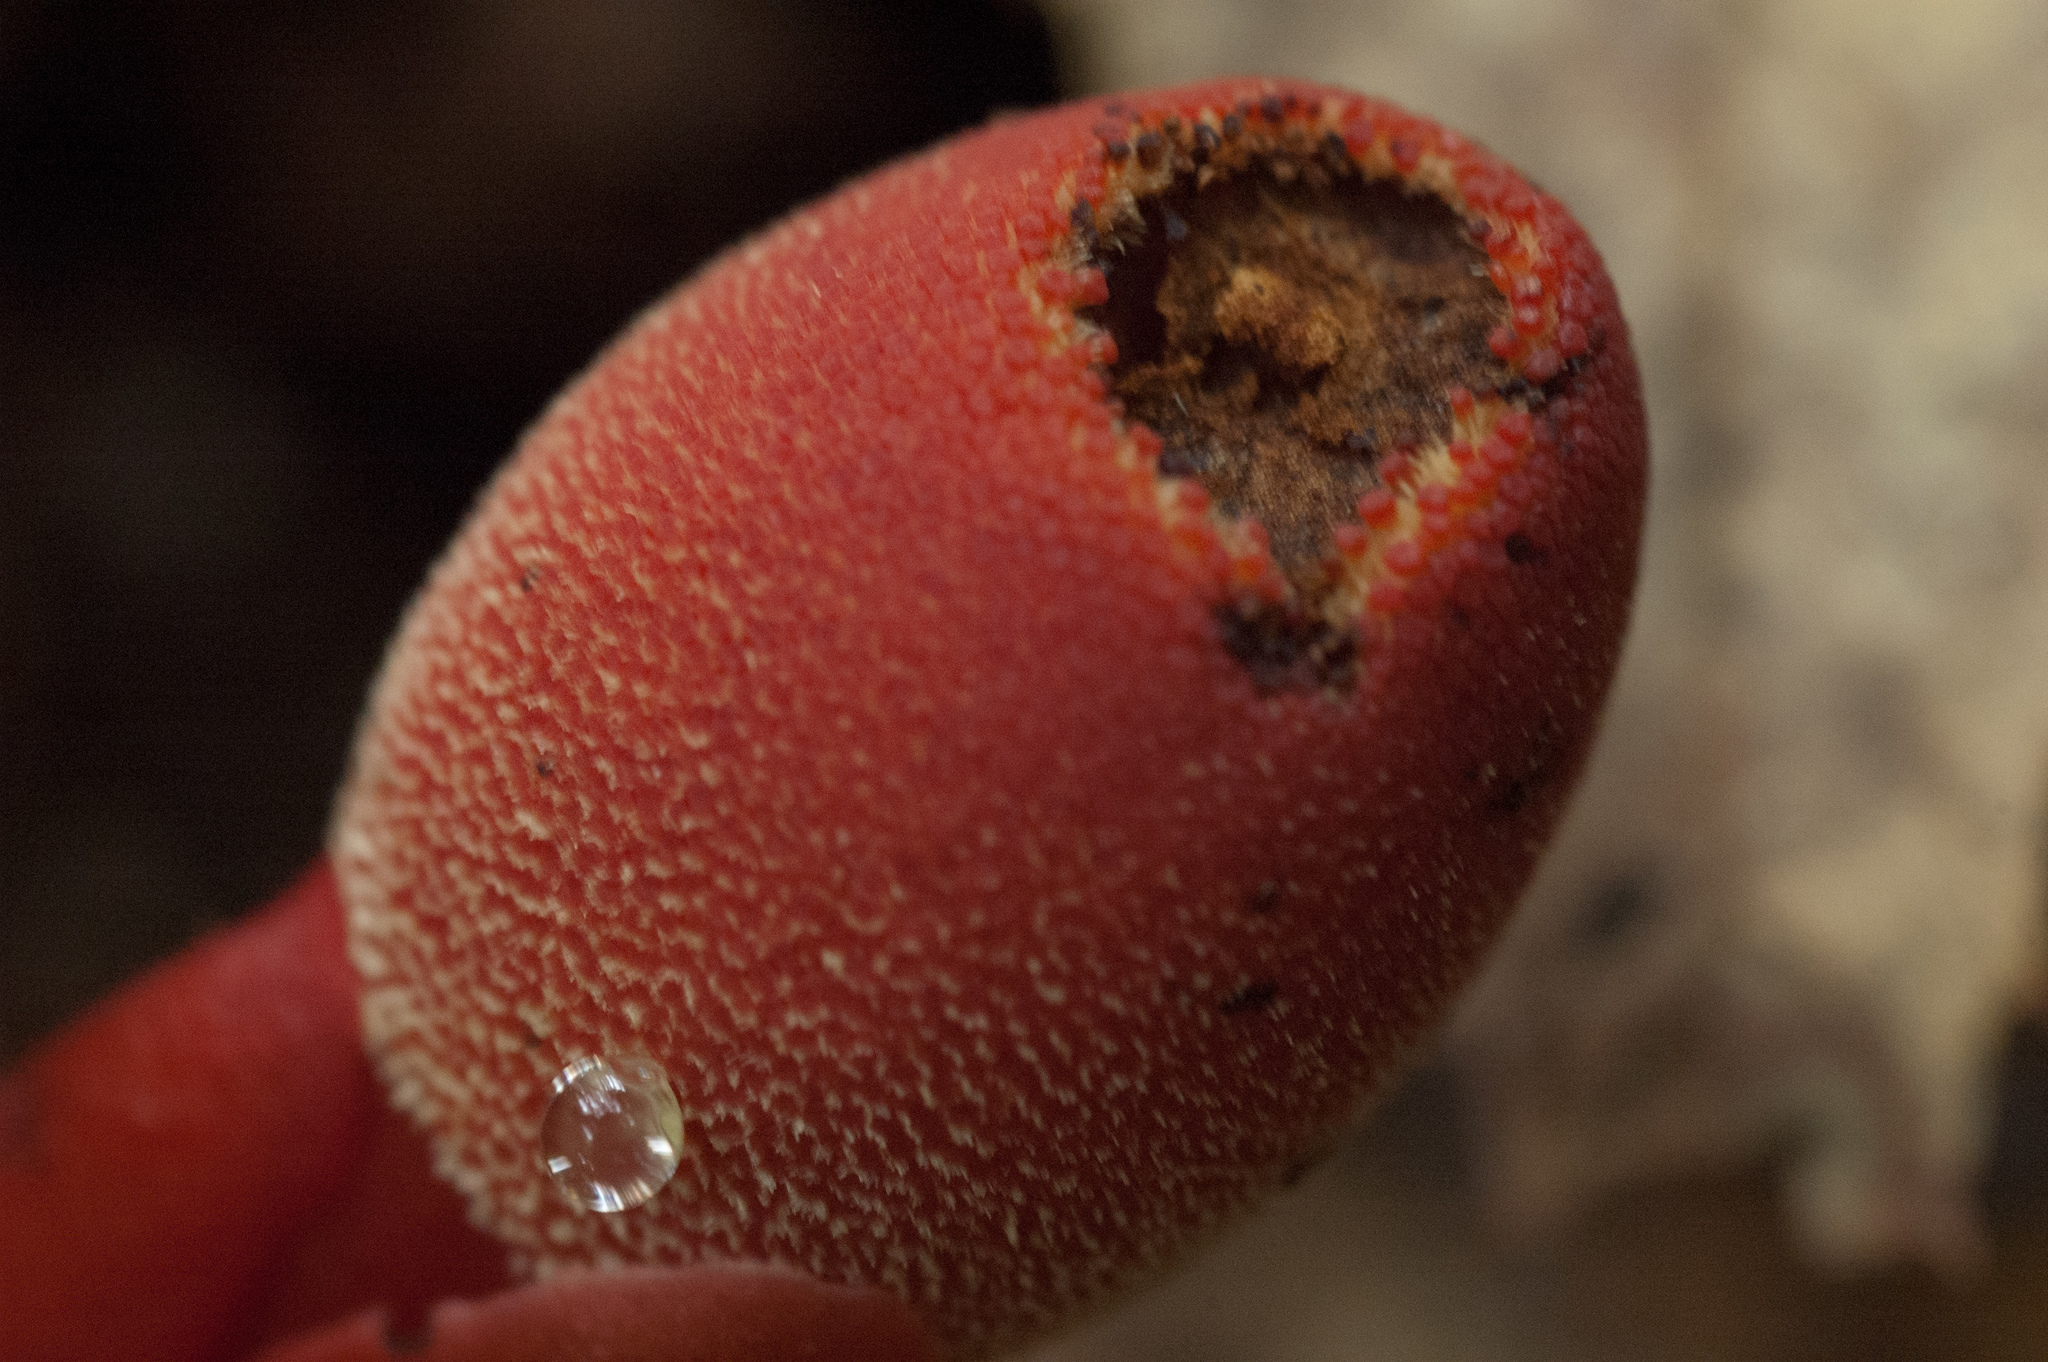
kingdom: Plantae
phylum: Tracheophyta
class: Magnoliopsida
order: Santalales
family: Balanophoraceae
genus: Balanophora
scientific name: Balanophora laxiflora
